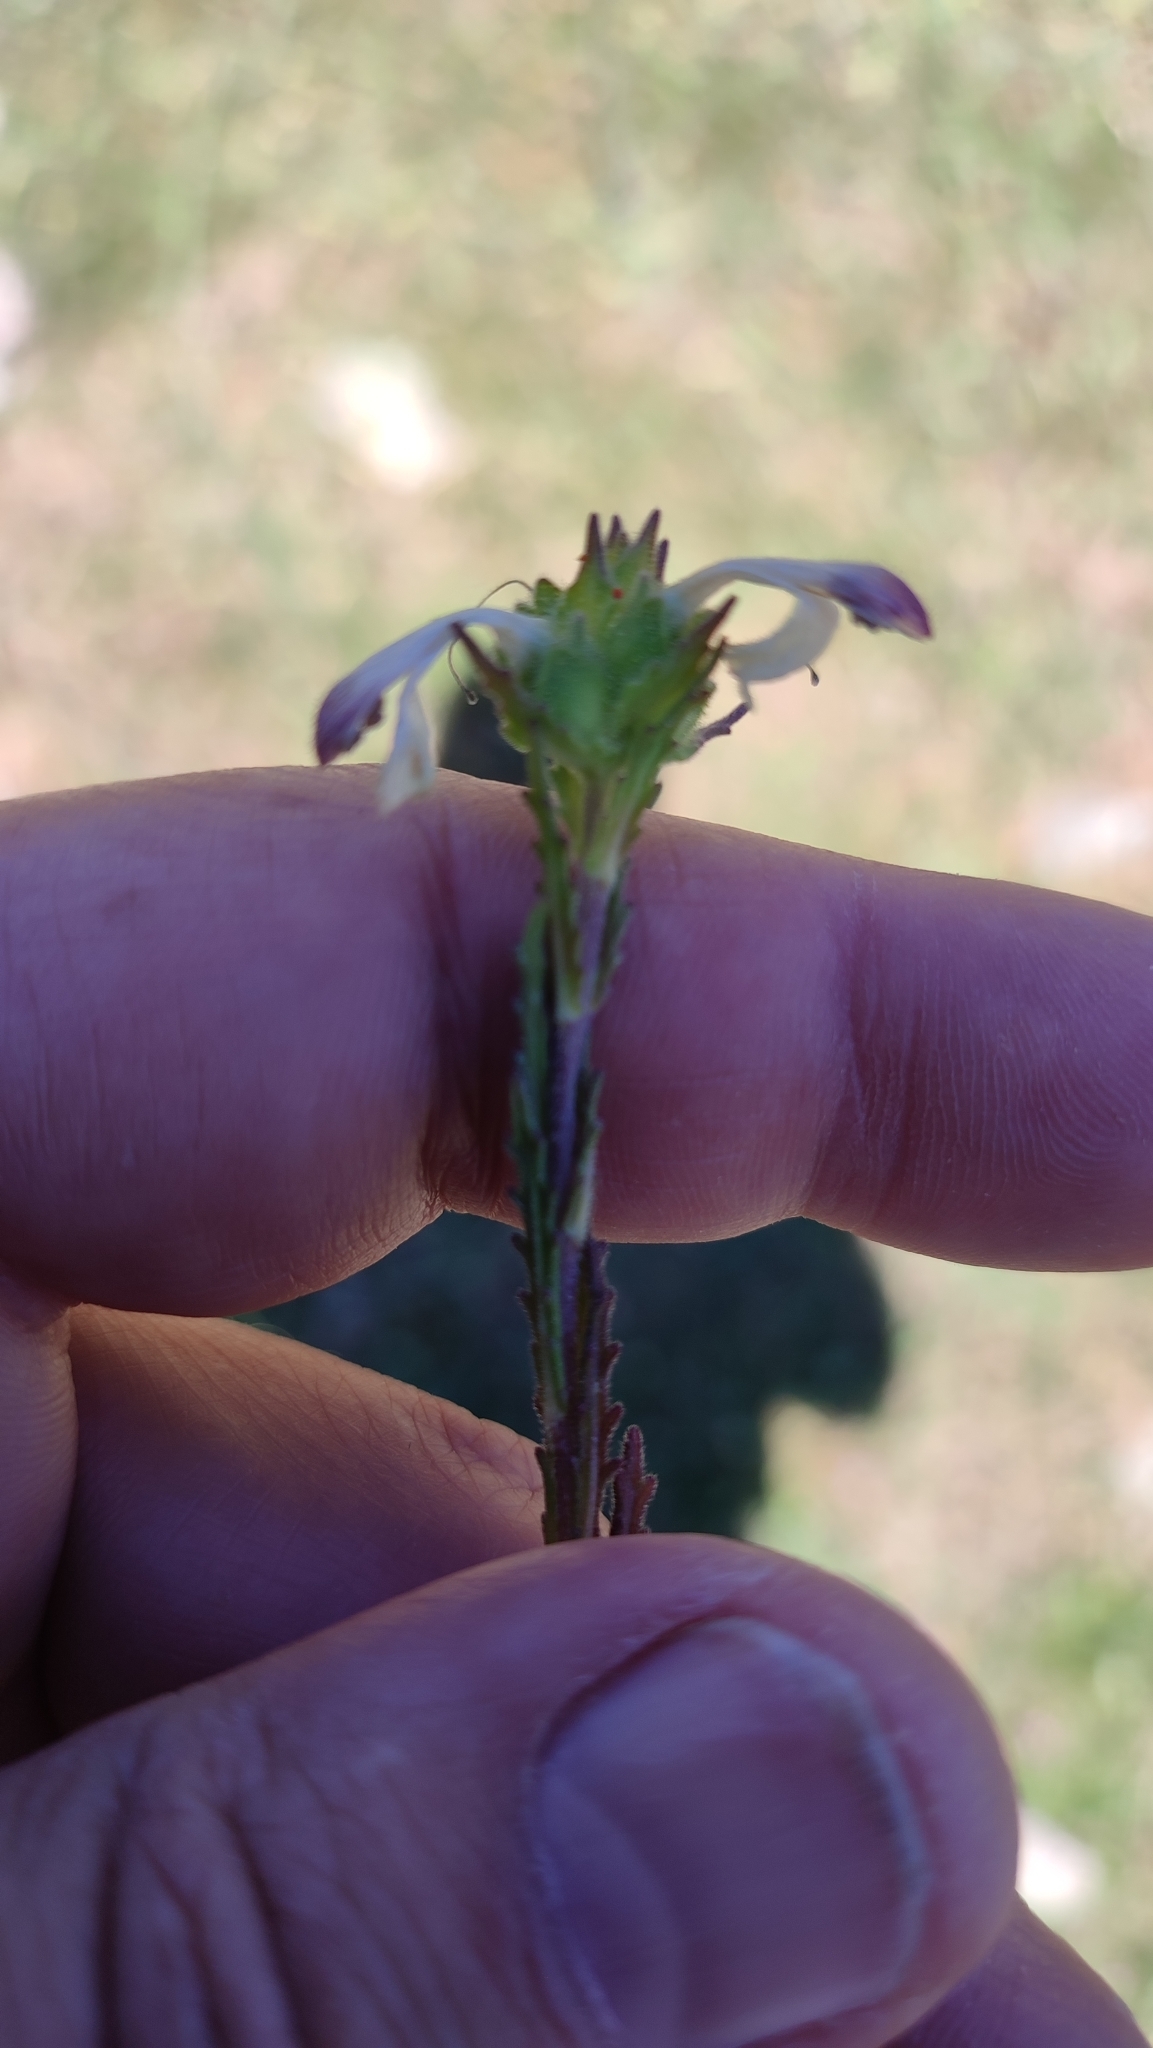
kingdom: Plantae
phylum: Tracheophyta
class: Magnoliopsida
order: Lamiales
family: Orobanchaceae
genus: Bellardia
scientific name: Bellardia trixago
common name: Mediterranean lineseed
